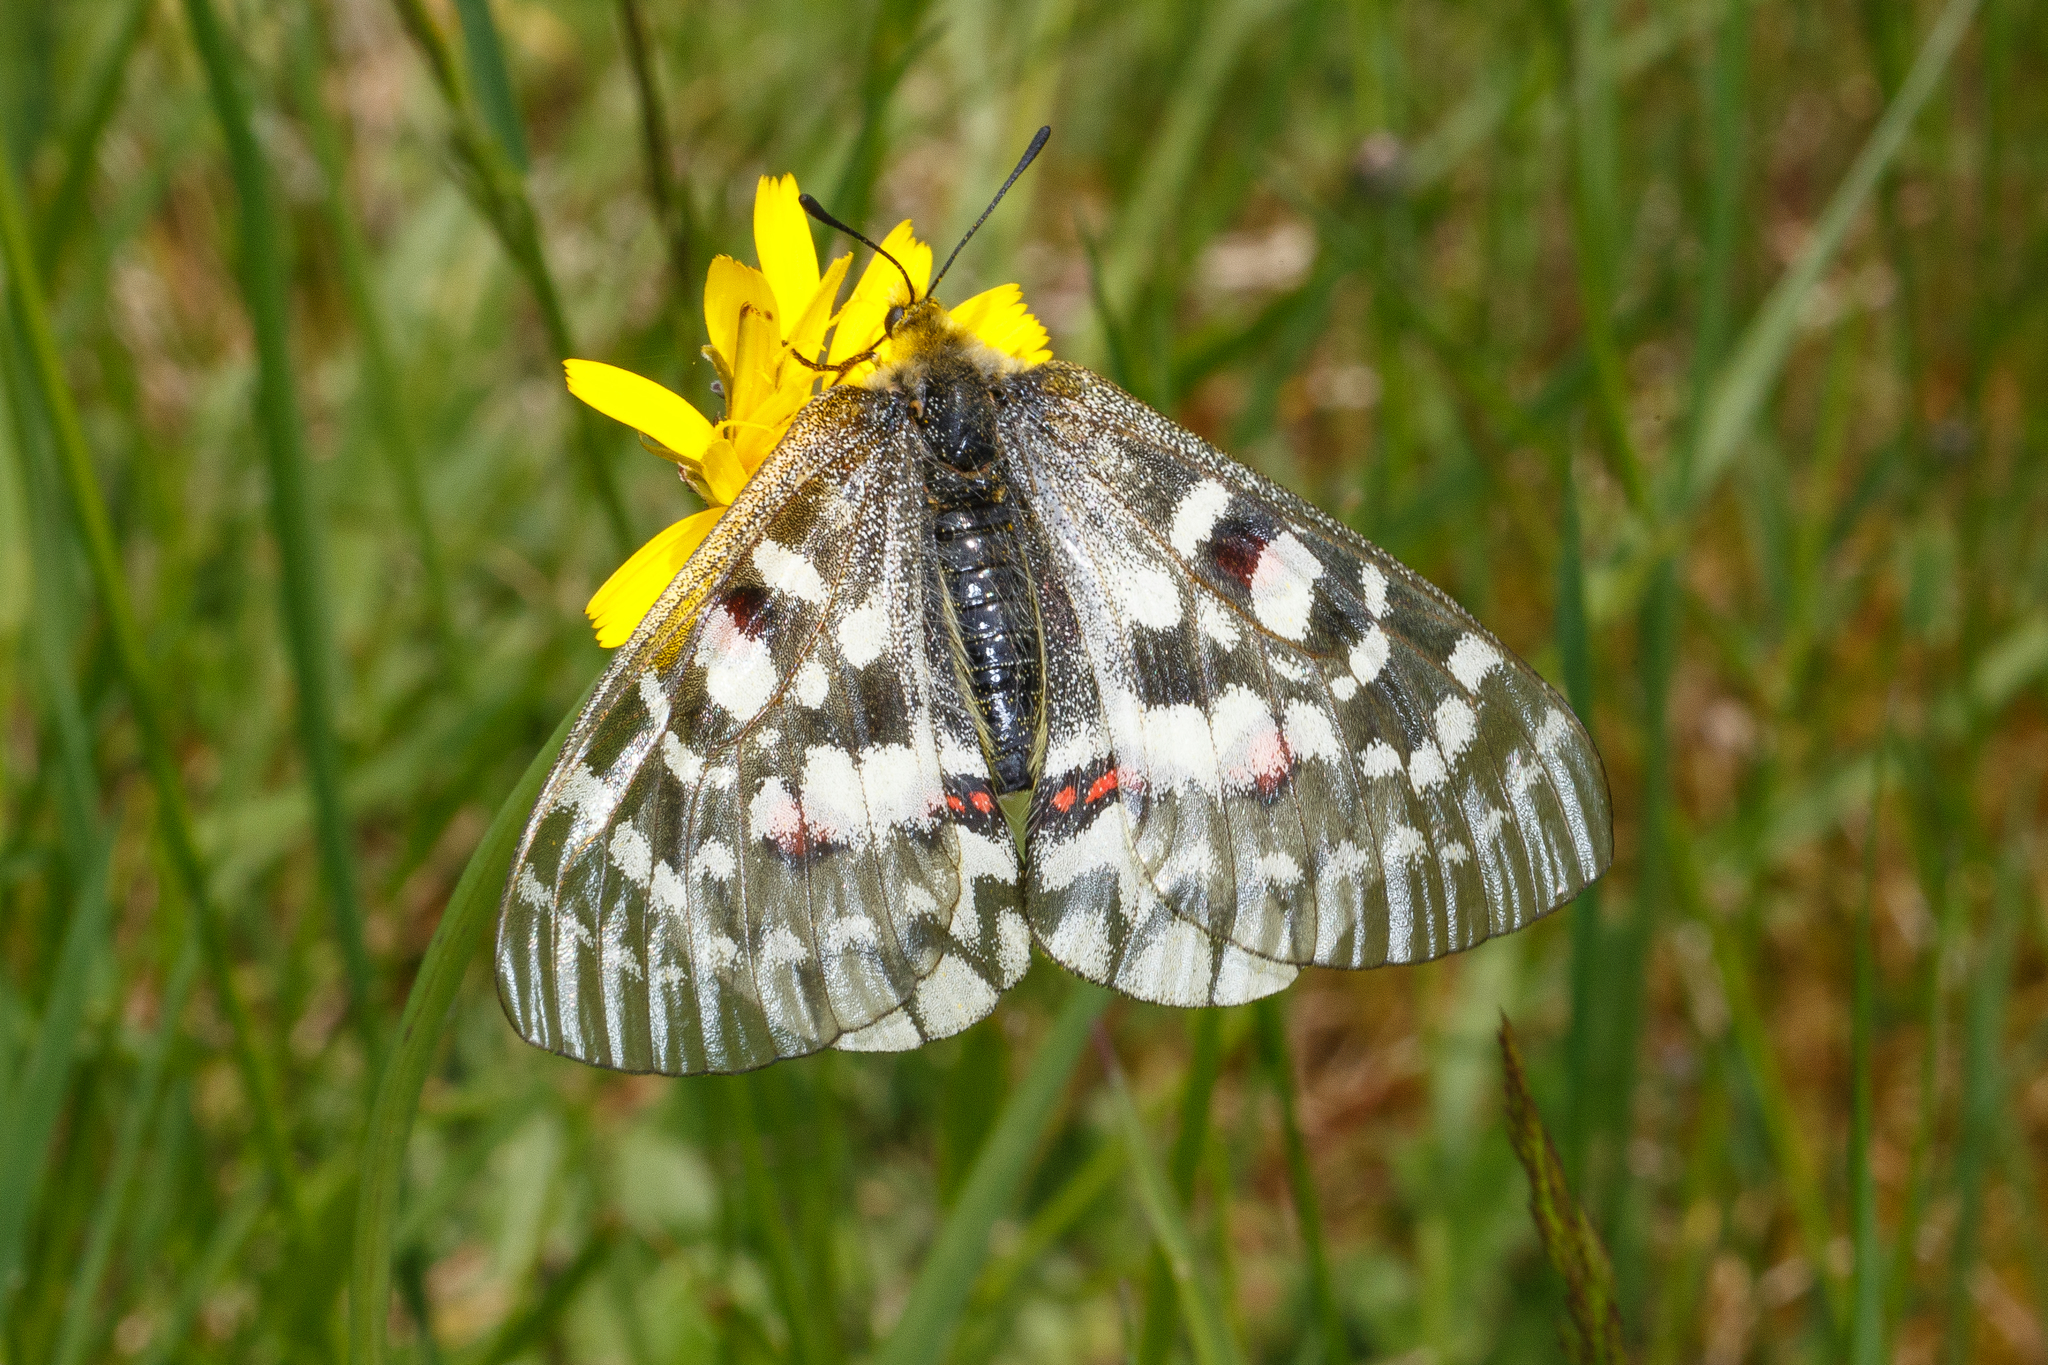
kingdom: Animalia
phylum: Arthropoda
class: Insecta
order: Lepidoptera
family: Papilionidae
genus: Parnassius
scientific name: Parnassius clodius
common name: American apollo
